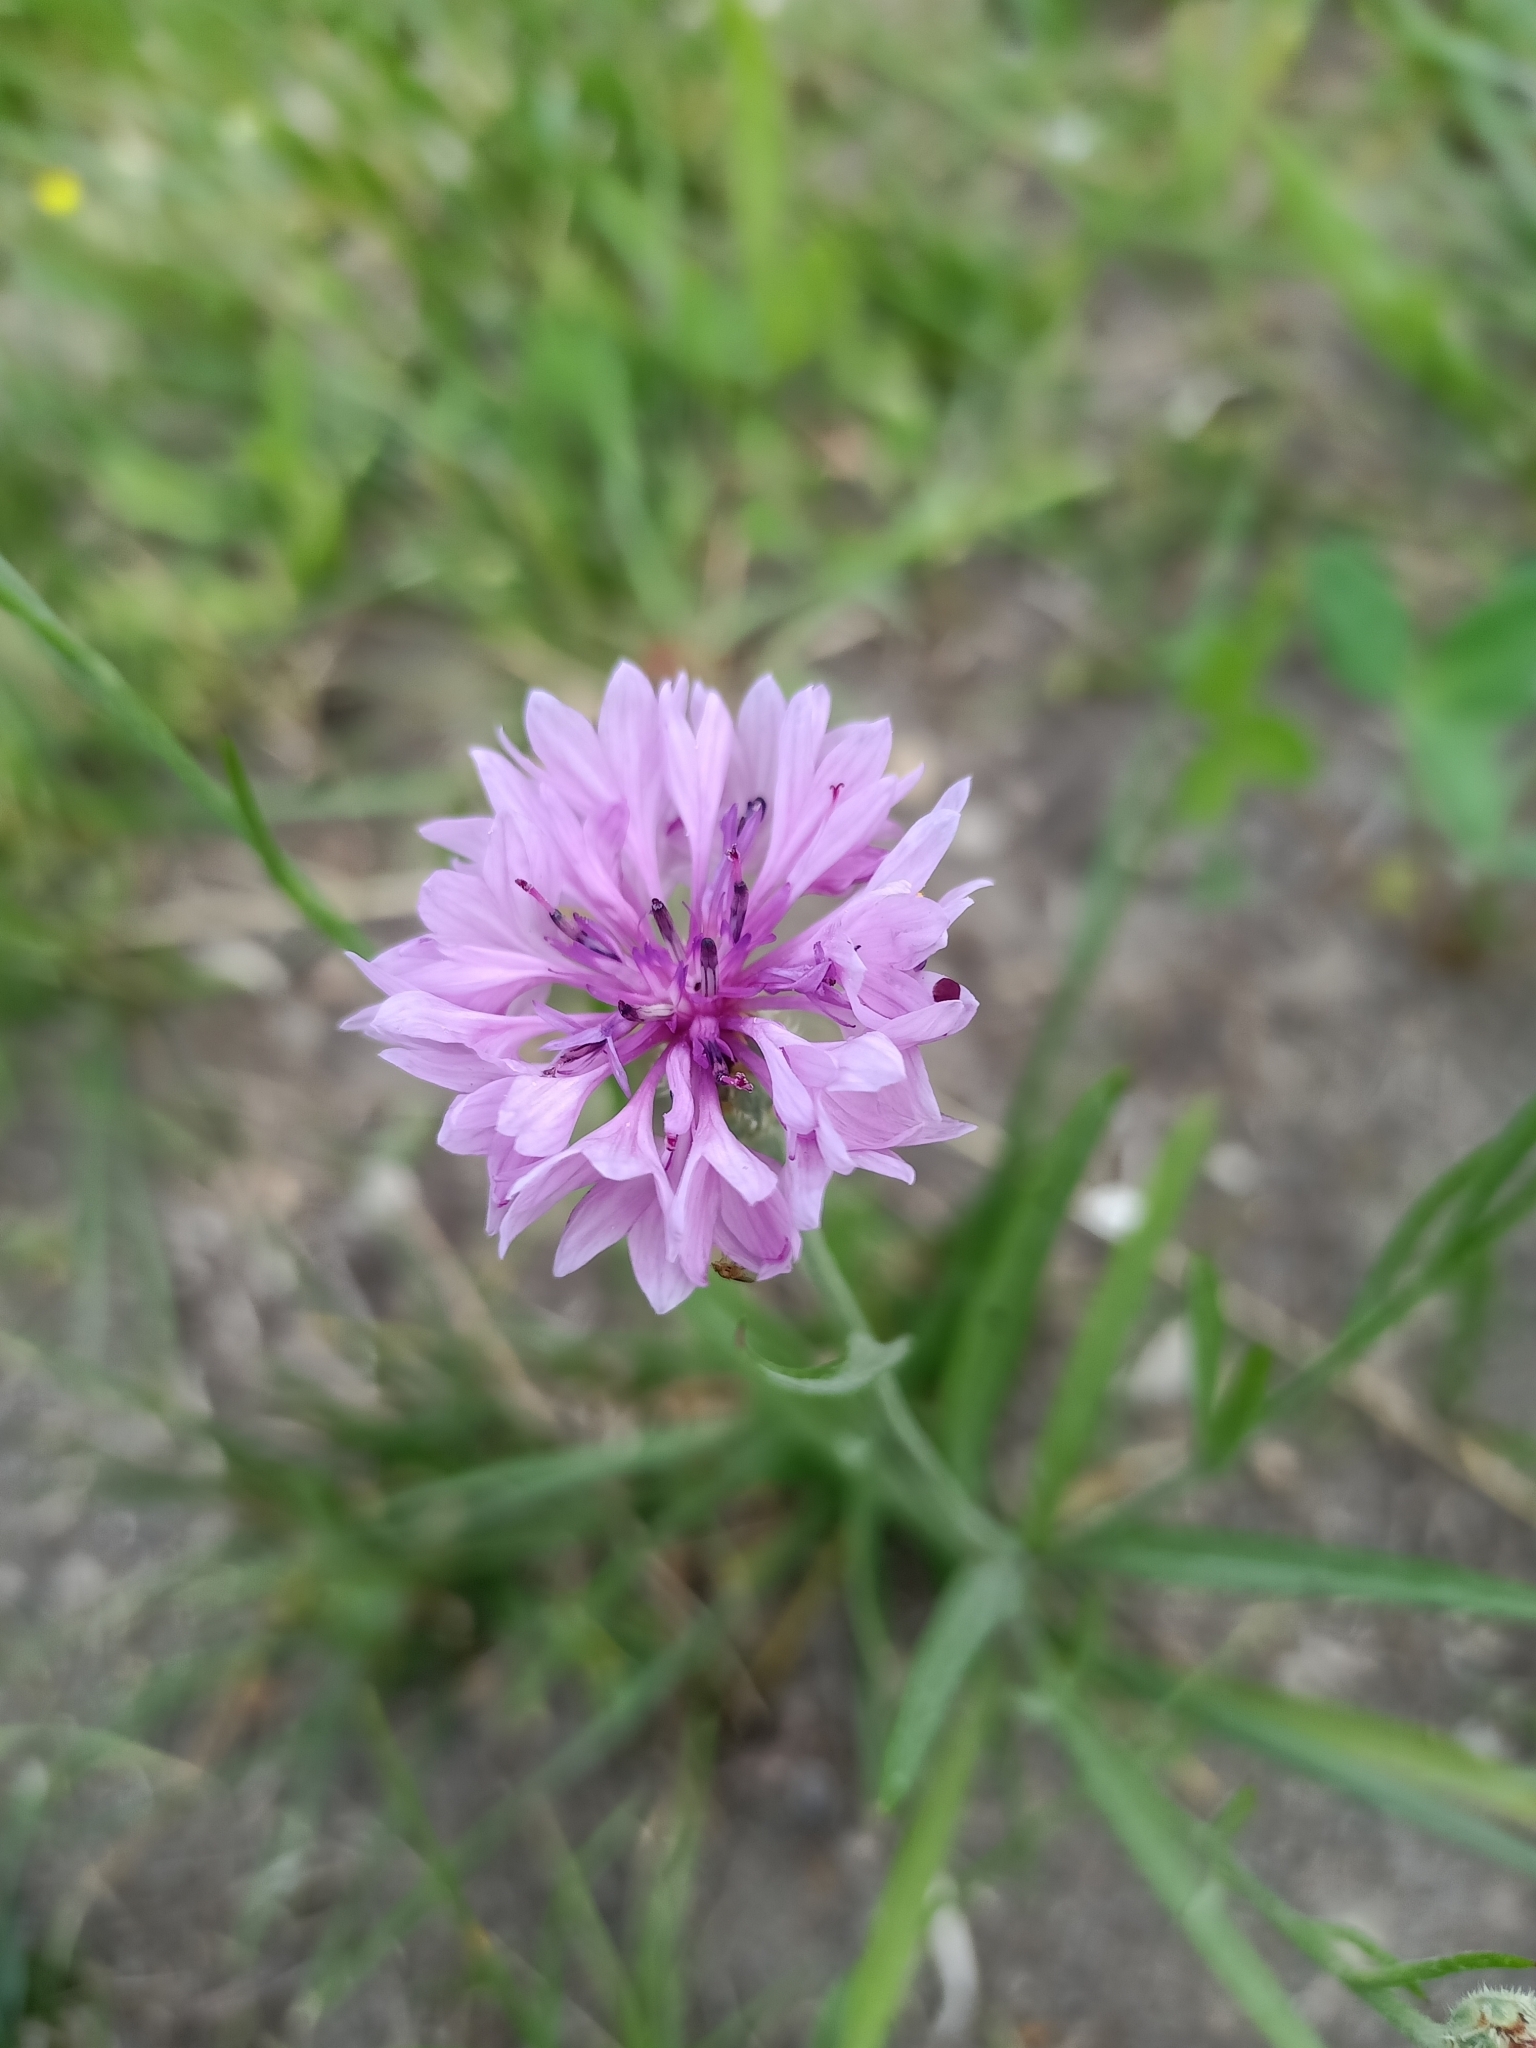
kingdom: Plantae
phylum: Tracheophyta
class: Magnoliopsida
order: Asterales
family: Asteraceae
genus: Centaurea
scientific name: Centaurea cyanus
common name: Cornflower
